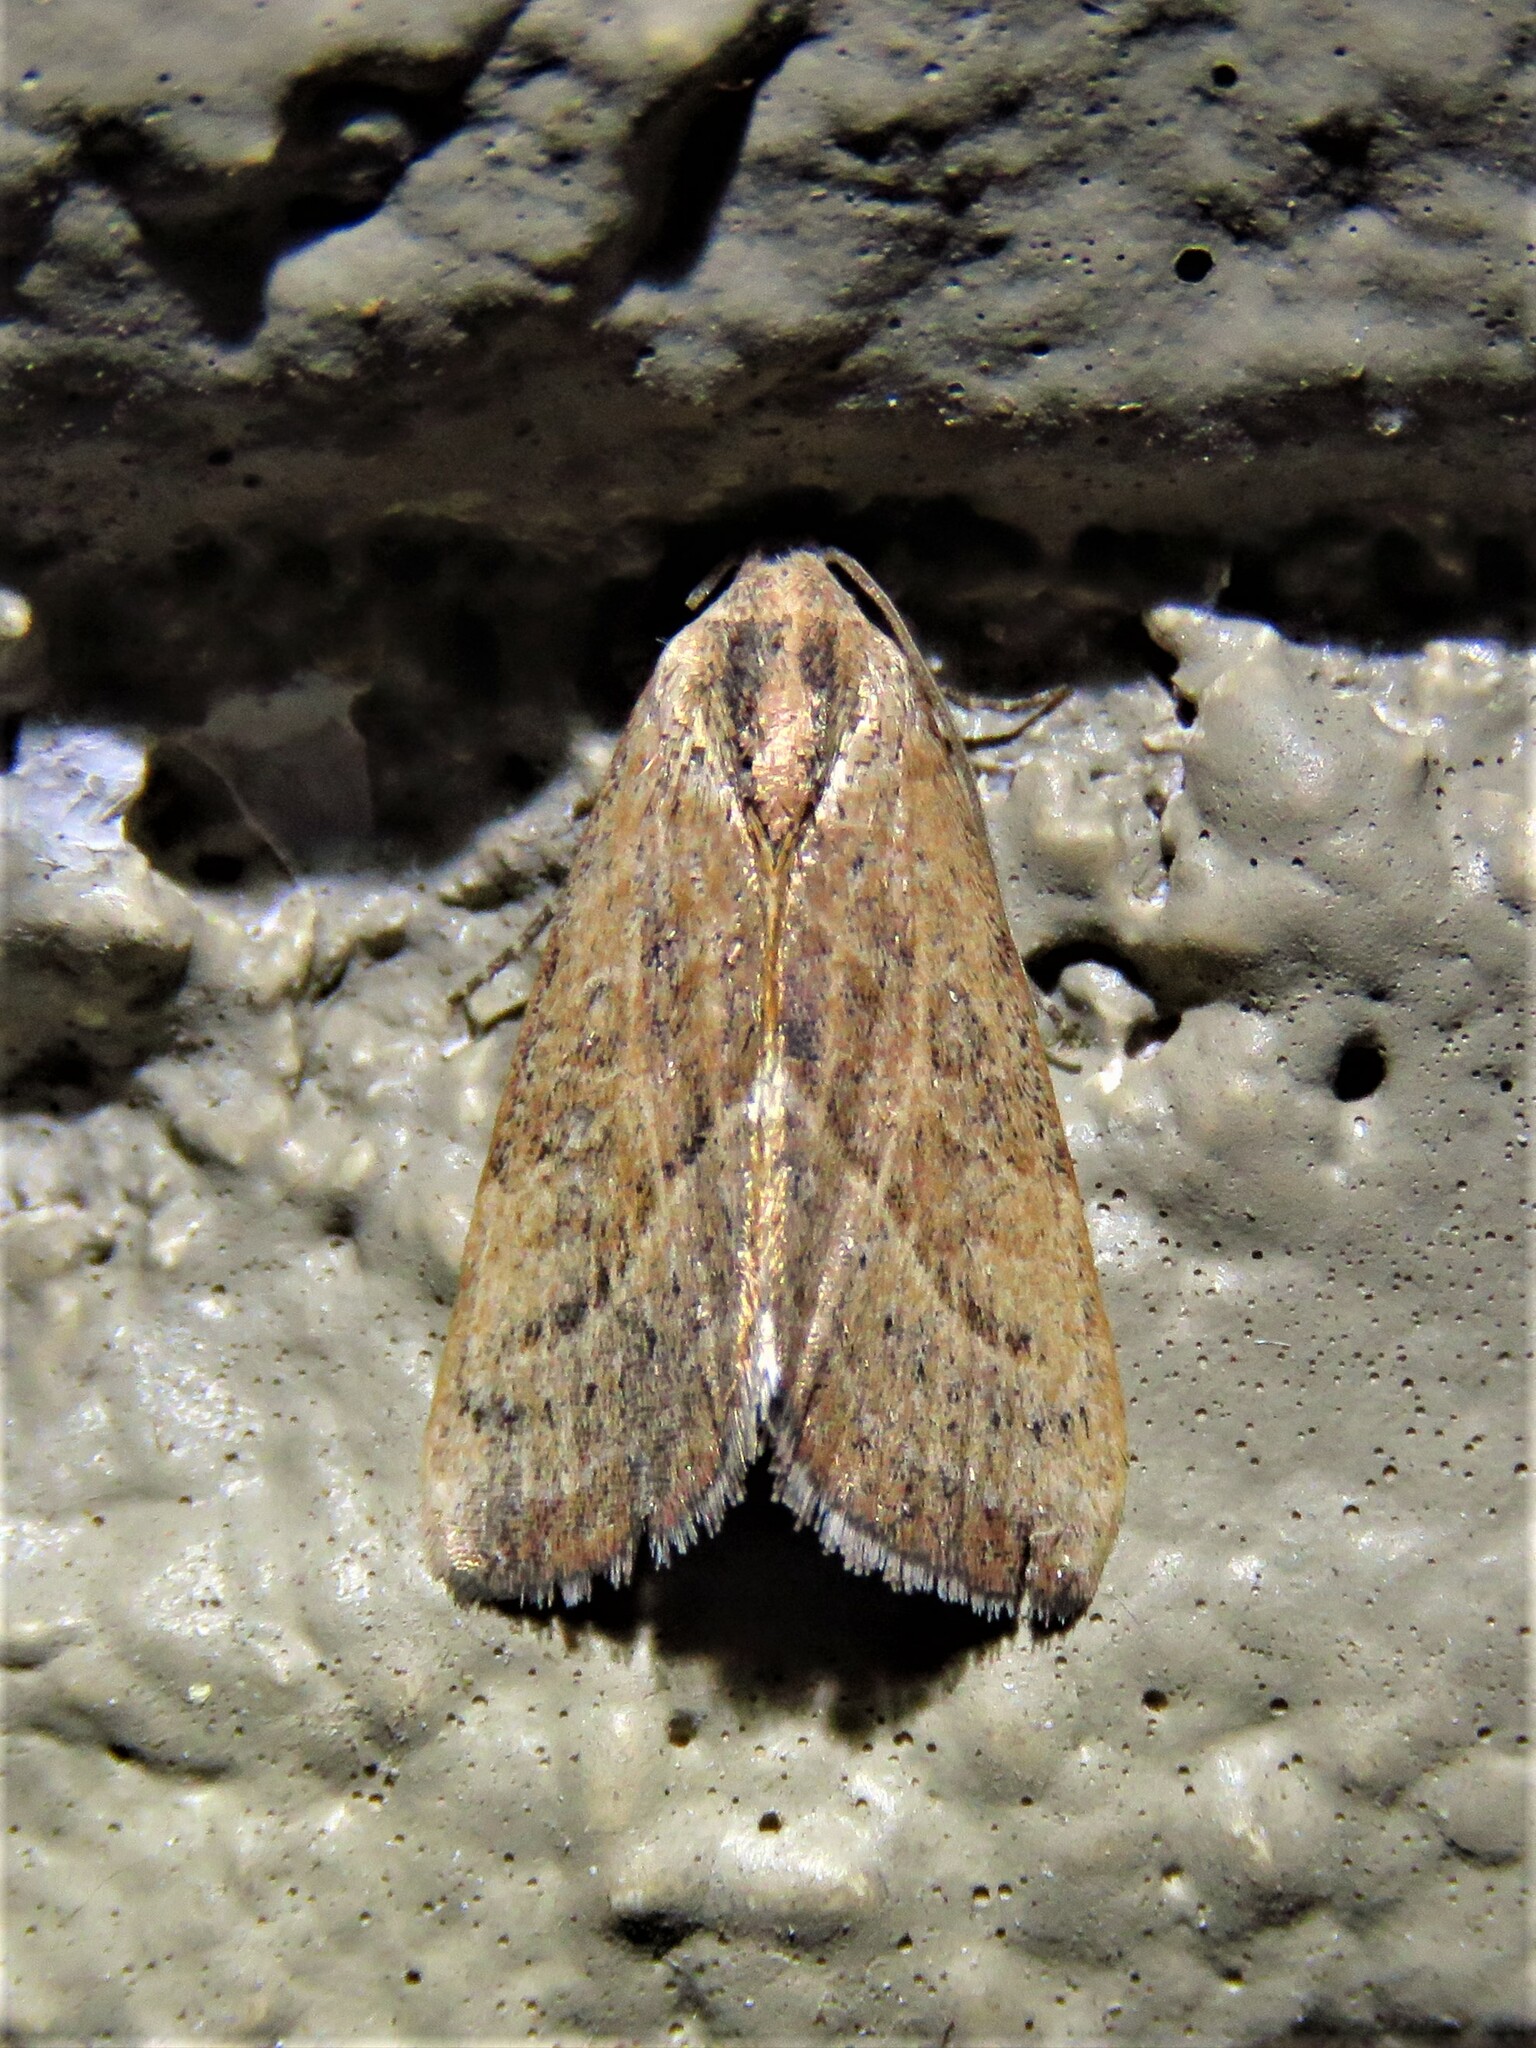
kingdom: Animalia
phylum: Arthropoda
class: Insecta
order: Lepidoptera
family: Noctuidae
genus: Galgula
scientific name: Galgula partita
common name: Wedgeling
